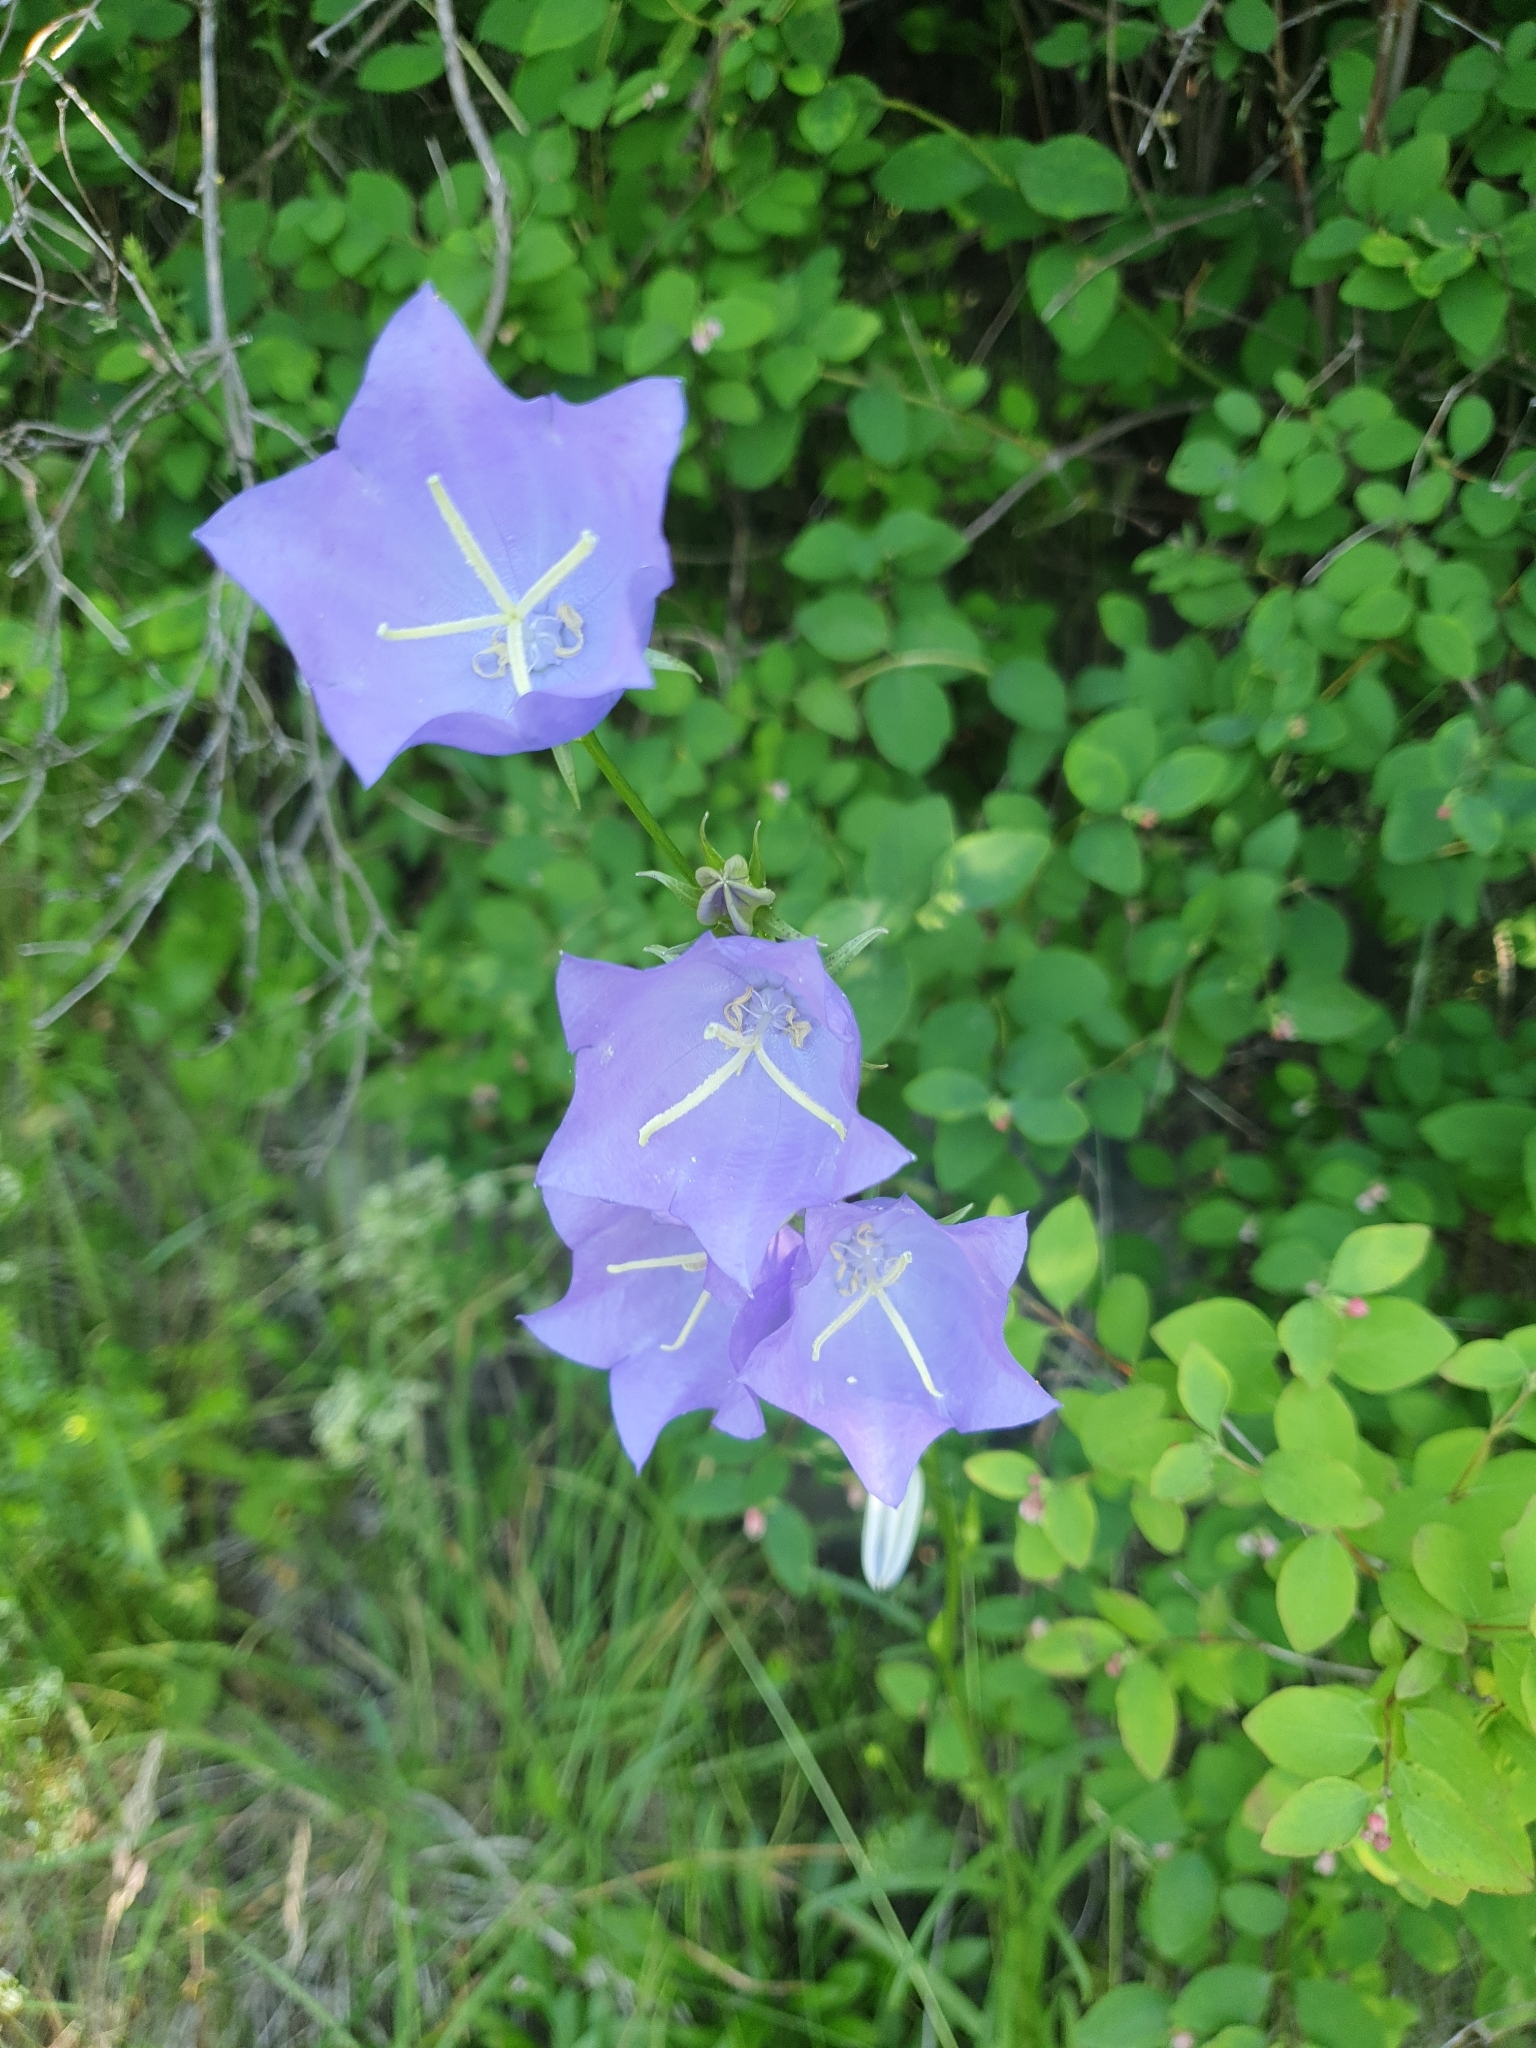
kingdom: Plantae
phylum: Tracheophyta
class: Magnoliopsida
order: Asterales
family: Campanulaceae
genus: Campanula
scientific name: Campanula persicifolia
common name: Peach-leaved bellflower
